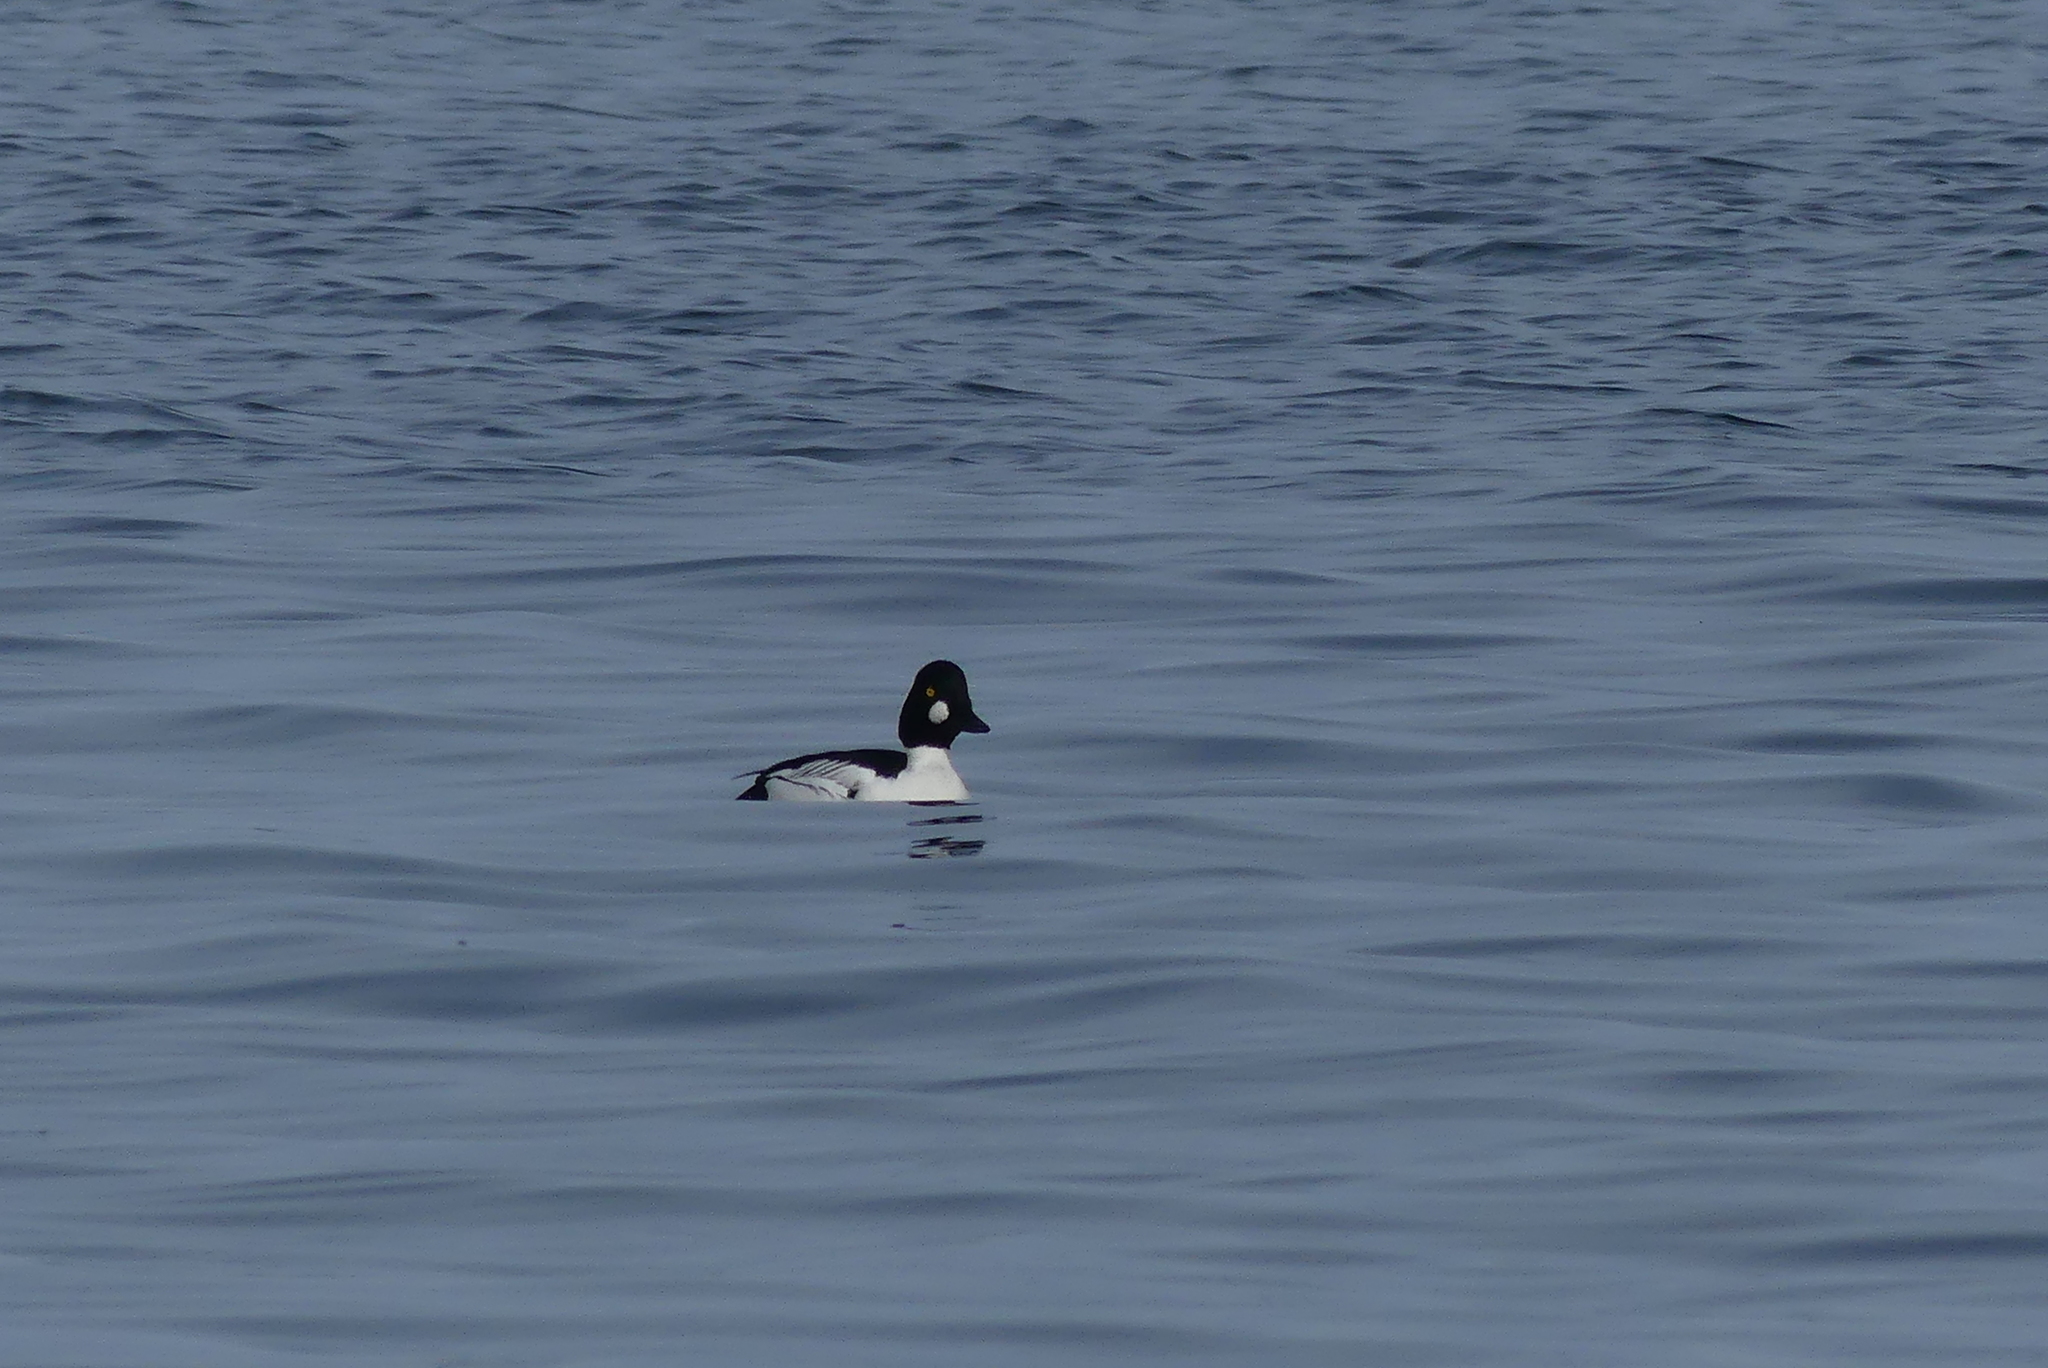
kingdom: Animalia
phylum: Chordata
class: Aves
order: Anseriformes
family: Anatidae
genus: Bucephala
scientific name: Bucephala clangula
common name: Common goldeneye
